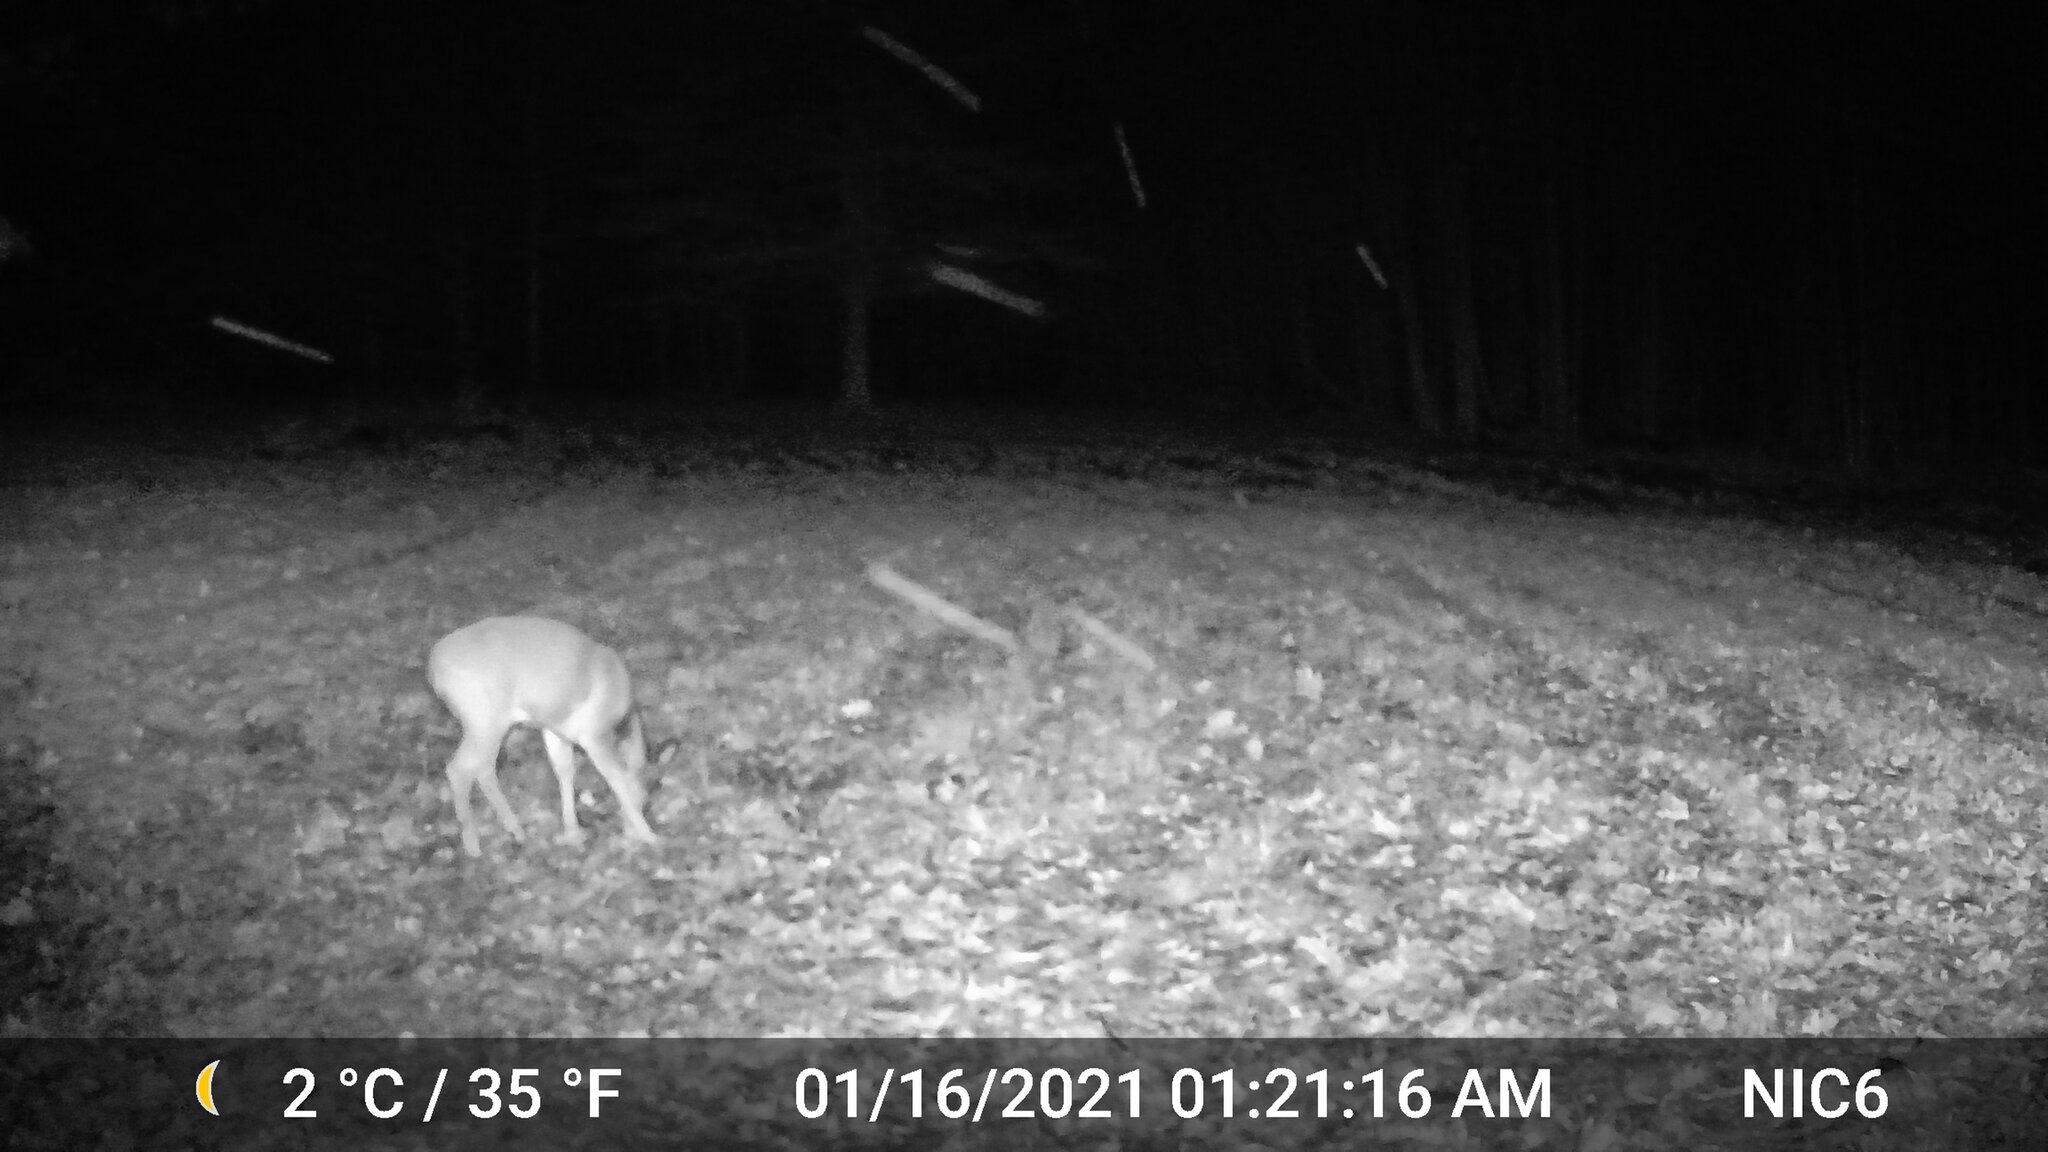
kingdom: Animalia
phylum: Chordata
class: Mammalia
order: Artiodactyla
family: Cervidae
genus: Odocoileus
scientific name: Odocoileus virginianus
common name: White-tailed deer
